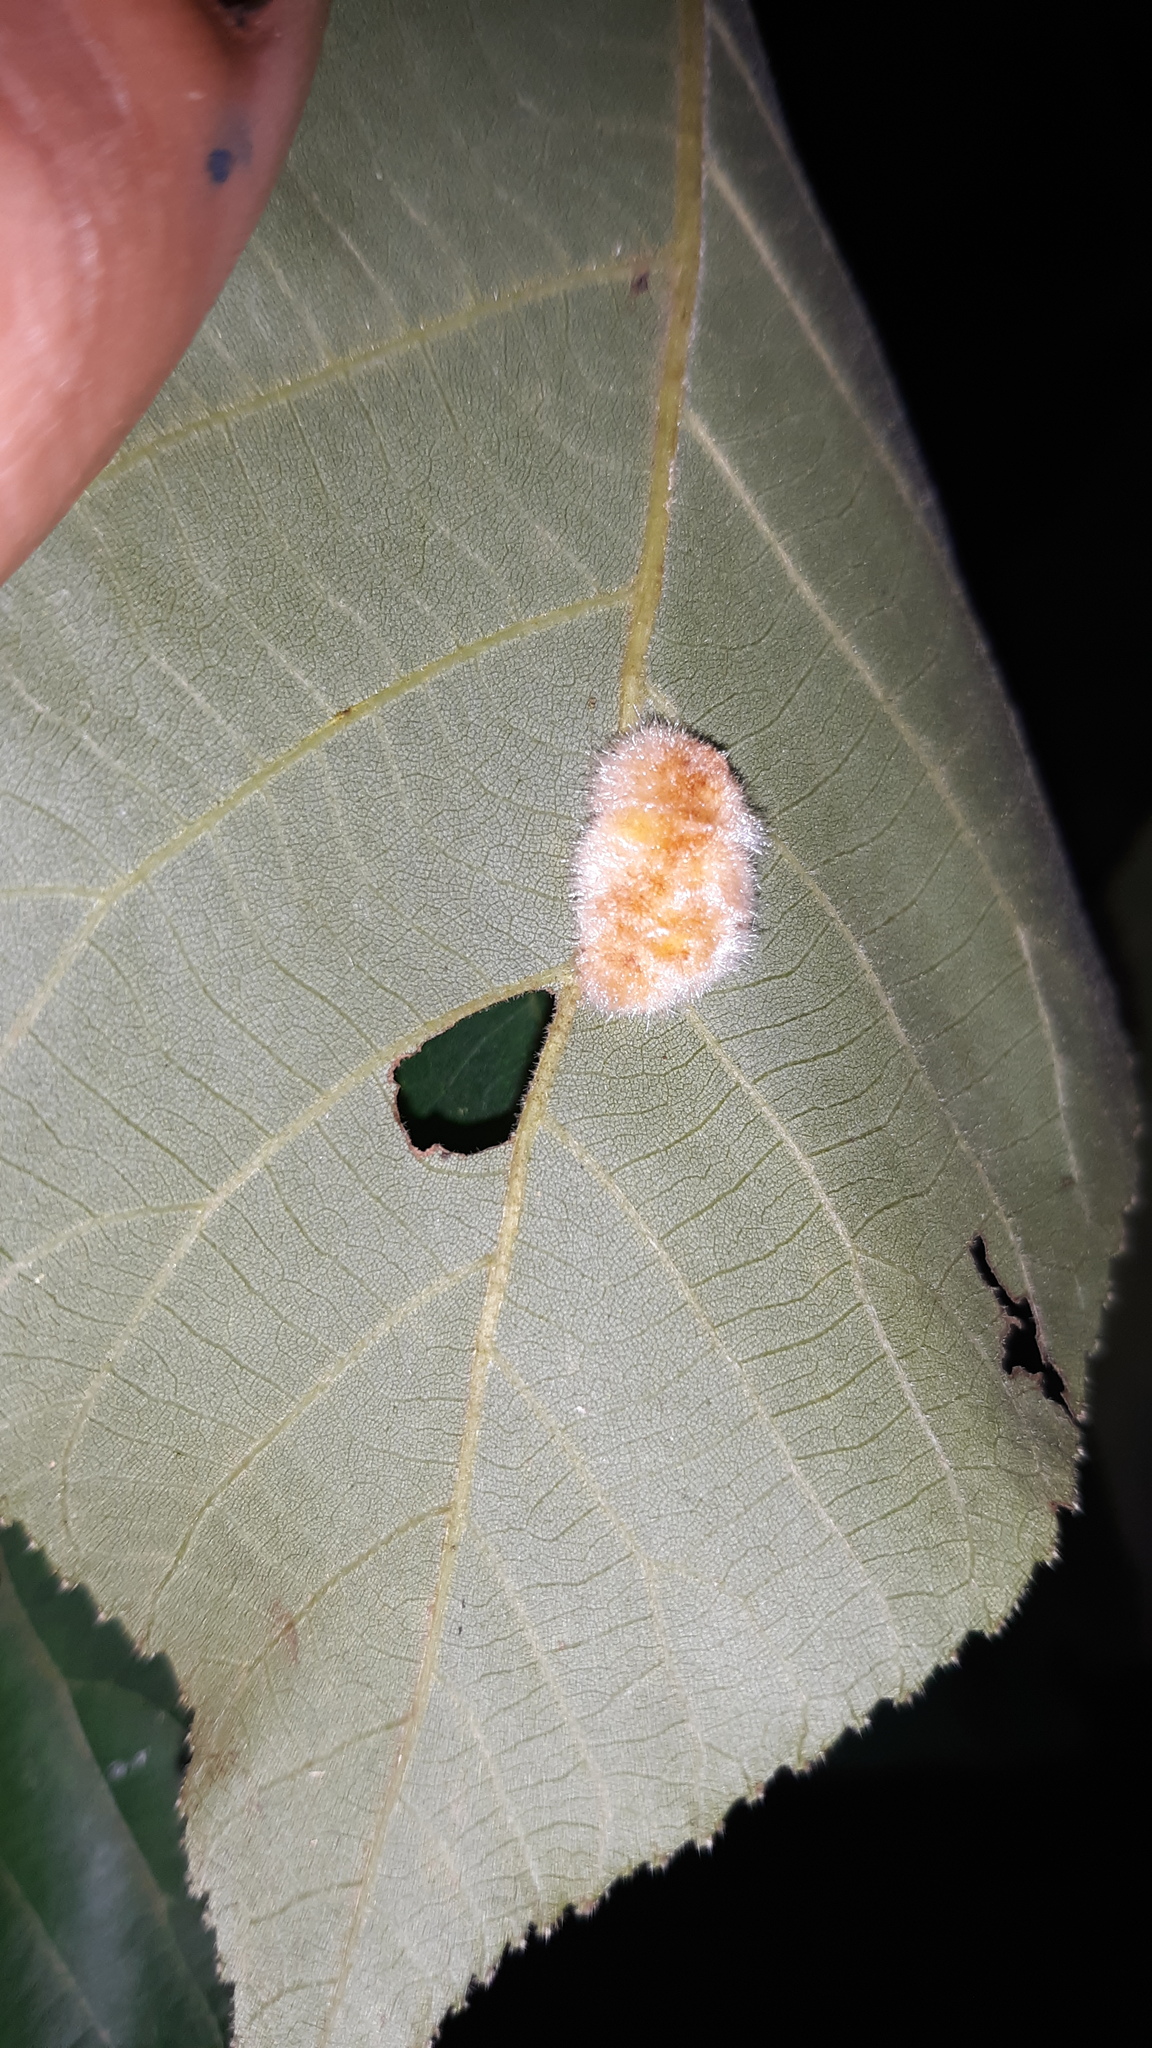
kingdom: Animalia
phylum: Arthropoda
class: Insecta
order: Diptera
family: Cecidomyiidae
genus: Caryomyia
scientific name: Caryomyia aggregata
